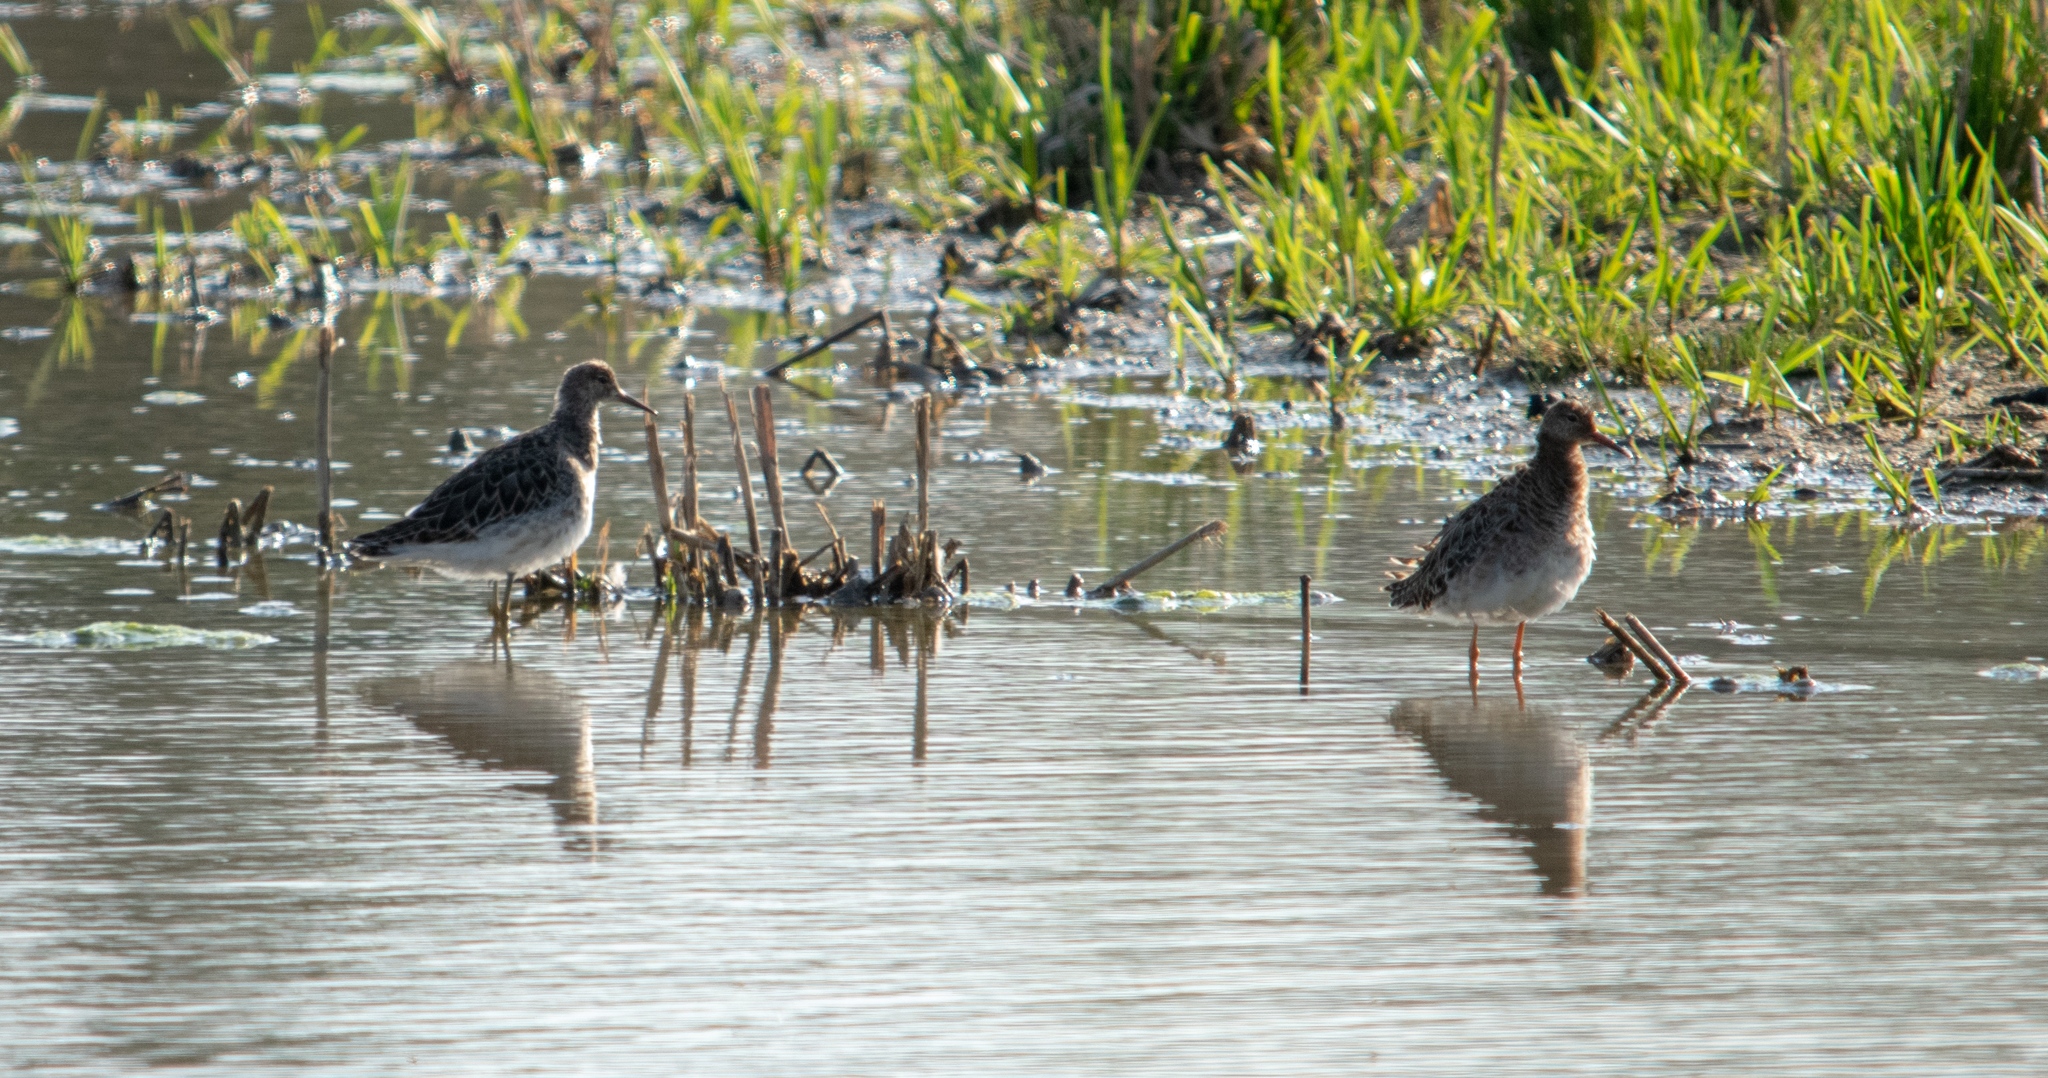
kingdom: Animalia
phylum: Chordata
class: Aves
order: Charadriiformes
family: Scolopacidae
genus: Calidris
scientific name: Calidris pugnax
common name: Ruff
